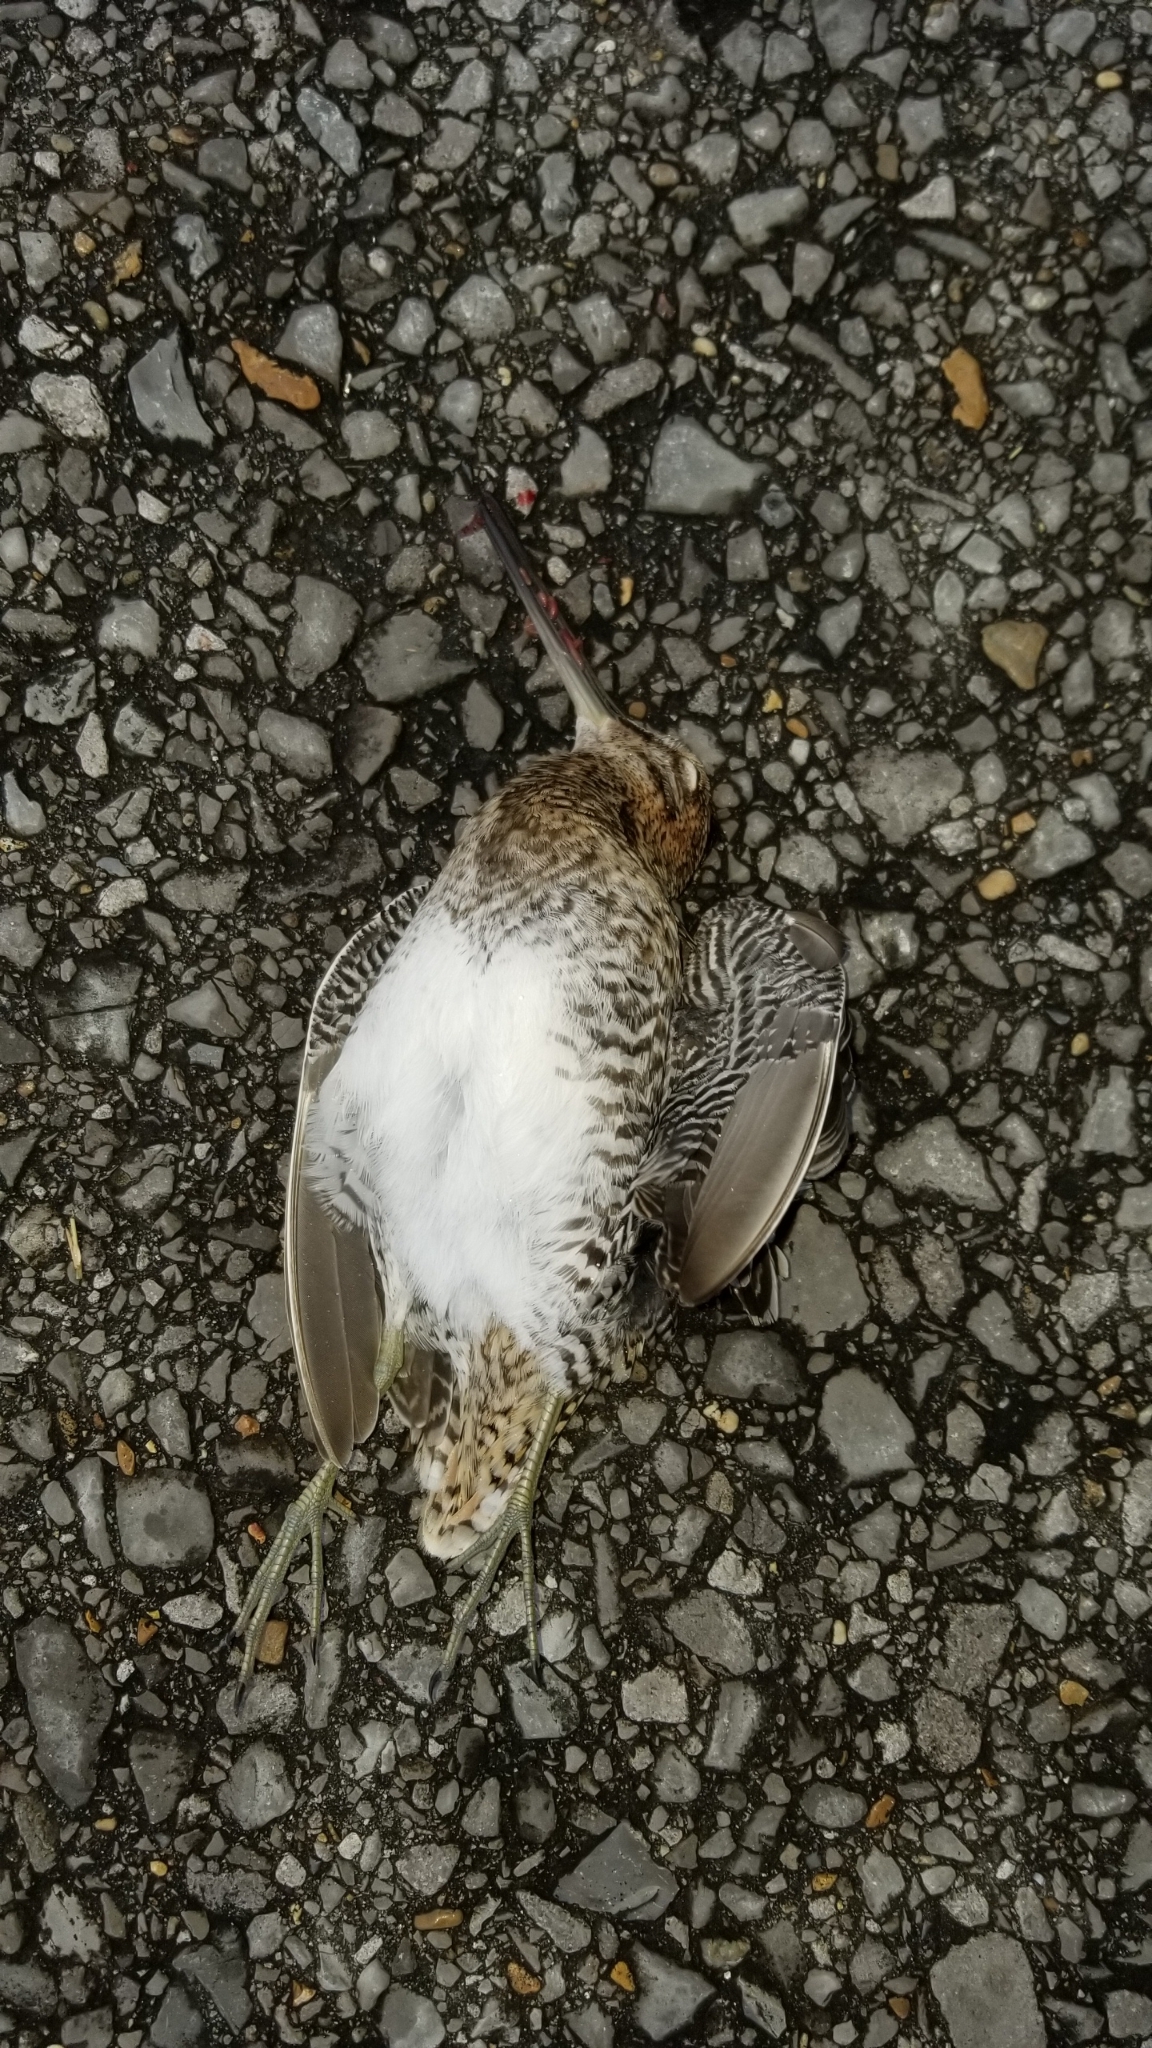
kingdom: Animalia
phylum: Chordata
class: Aves
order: Charadriiformes
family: Scolopacidae
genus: Gallinago
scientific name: Gallinago delicata
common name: Wilson's snipe
